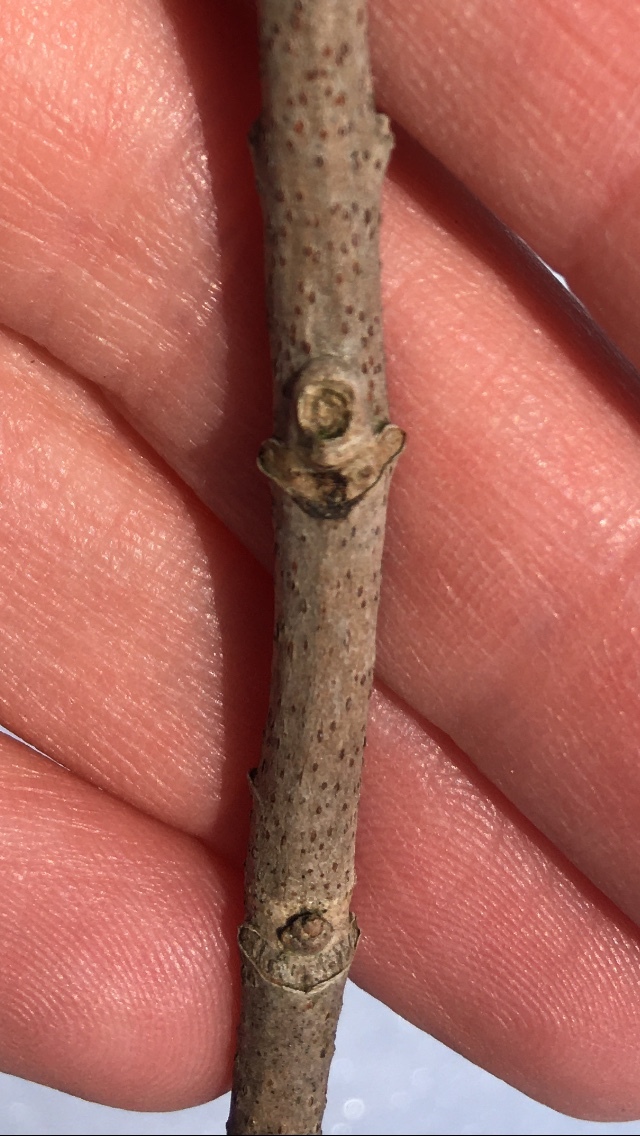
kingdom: Plantae
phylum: Tracheophyta
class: Magnoliopsida
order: Sapindales
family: Anacardiaceae
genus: Toxicodendron
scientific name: Toxicodendron rydbergii
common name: Rydberg's poison-ivy
